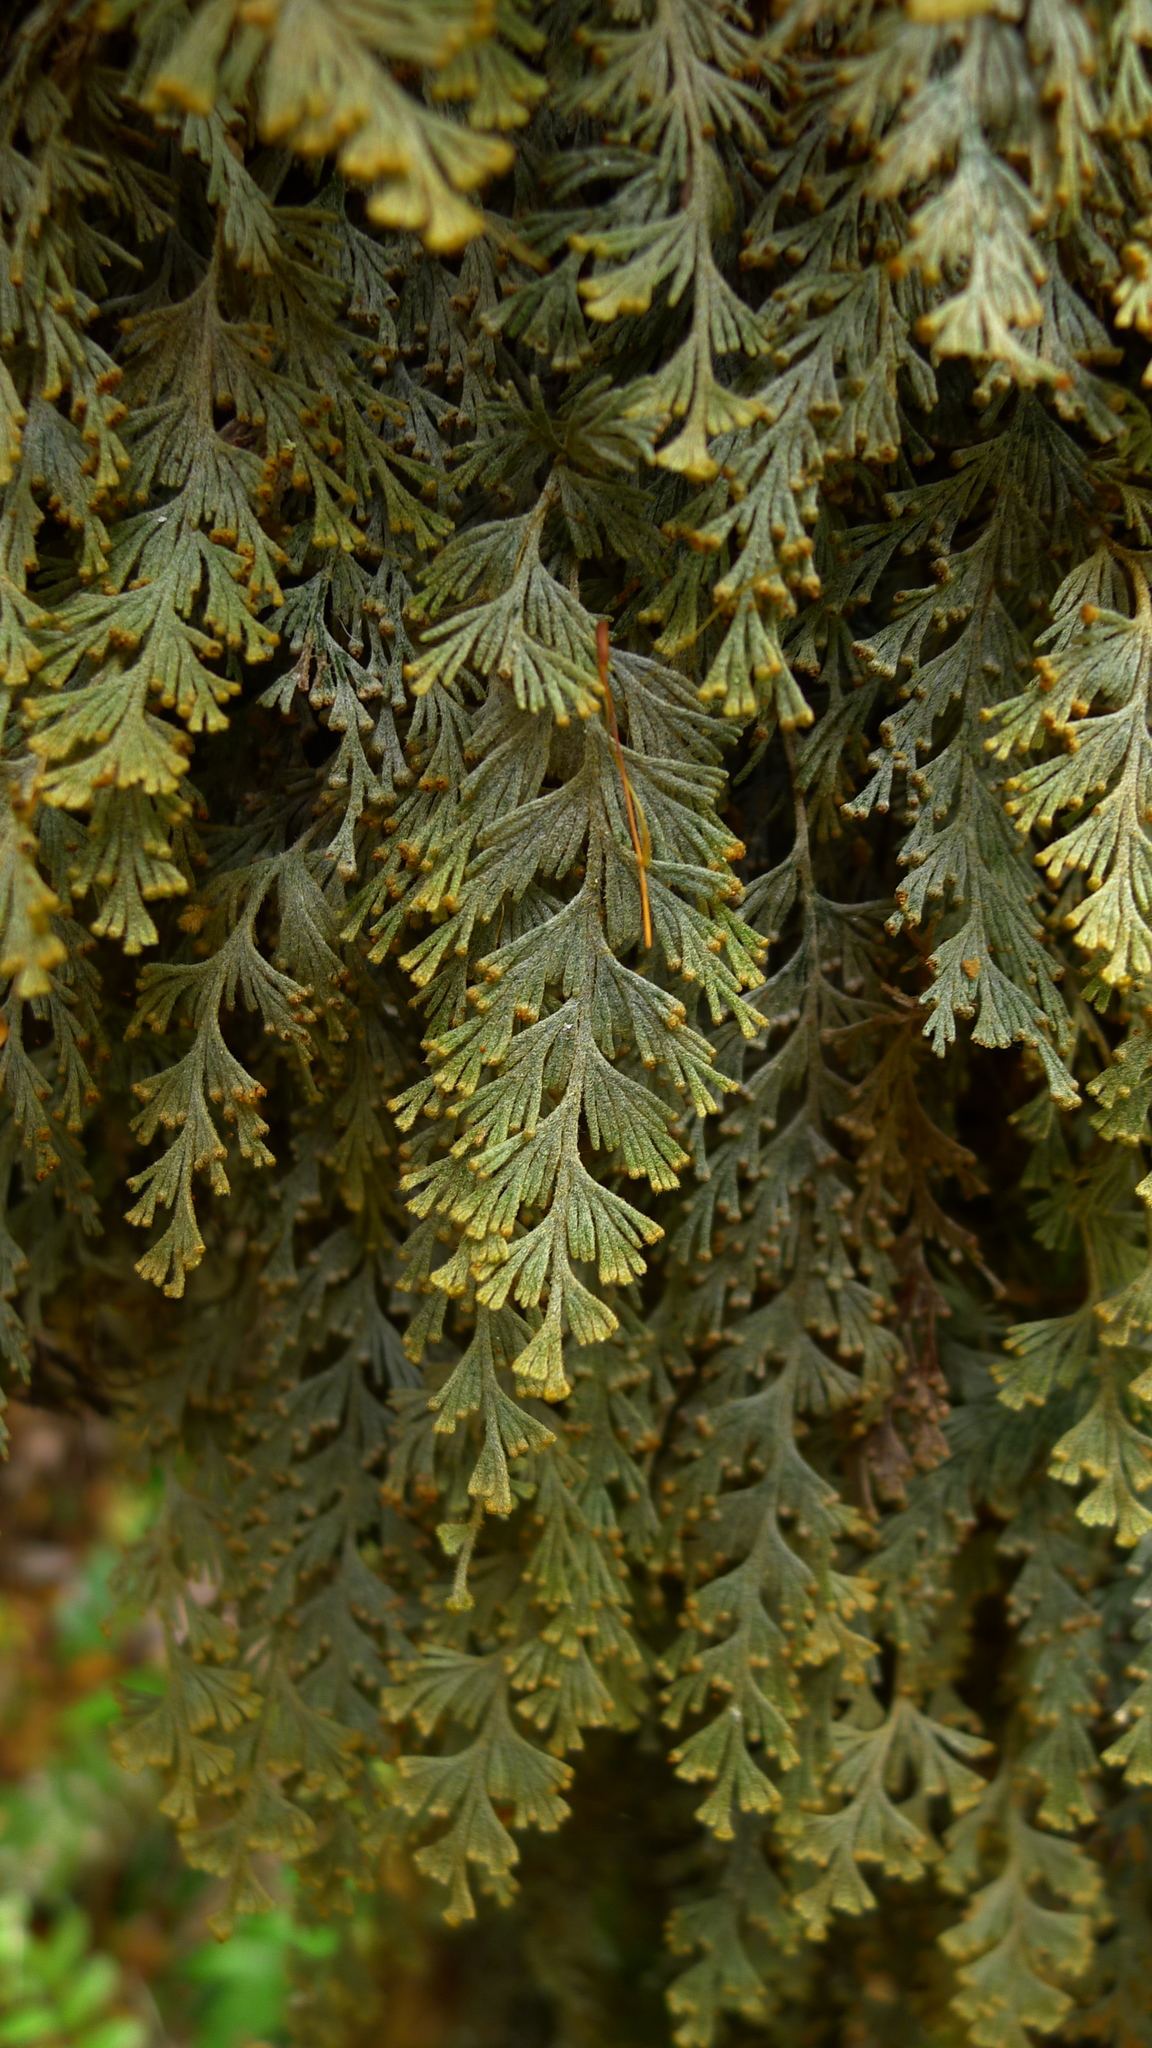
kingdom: Plantae
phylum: Tracheophyta
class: Polypodiopsida
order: Hymenophyllales
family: Hymenophyllaceae
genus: Hymenophyllum
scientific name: Hymenophyllum malingii
